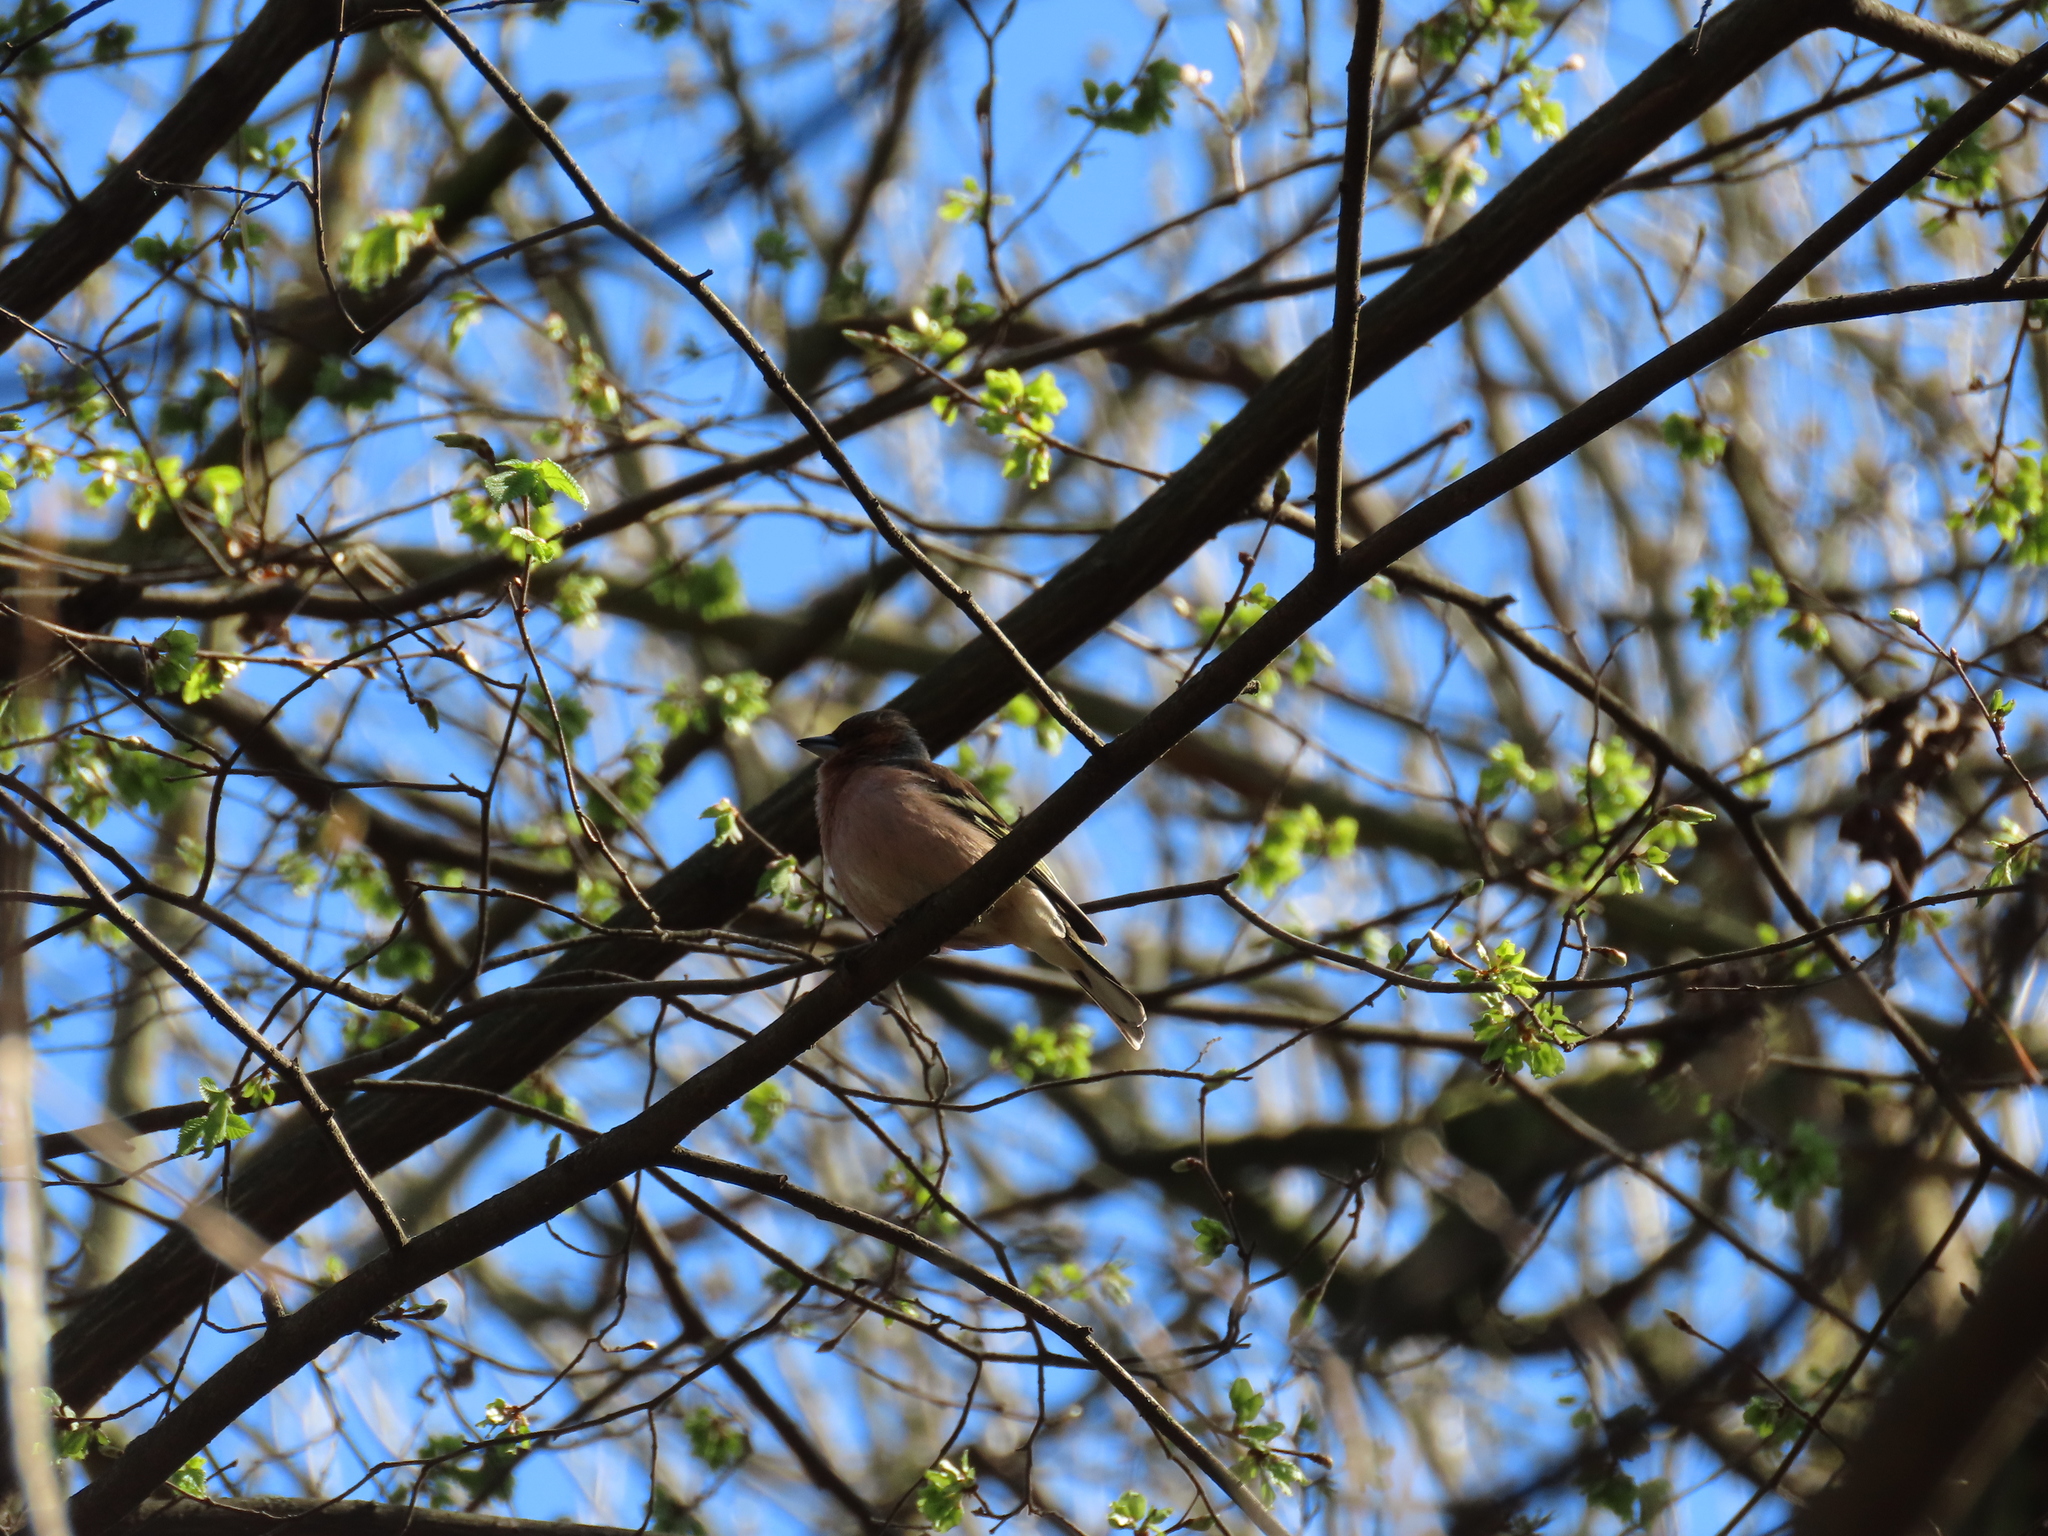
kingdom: Animalia
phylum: Chordata
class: Aves
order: Passeriformes
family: Fringillidae
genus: Fringilla
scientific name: Fringilla coelebs
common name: Common chaffinch
